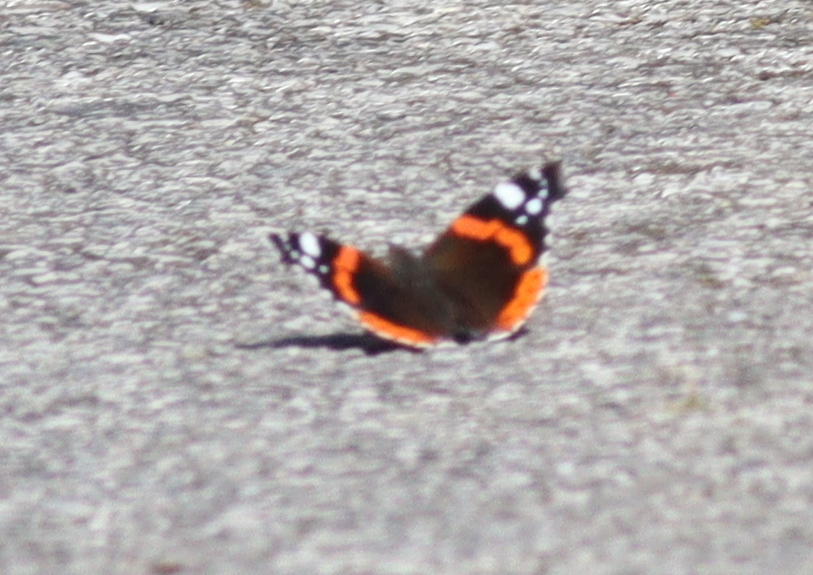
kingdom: Animalia
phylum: Arthropoda
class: Insecta
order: Lepidoptera
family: Nymphalidae
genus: Vanessa
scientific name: Vanessa atalanta
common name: Red admiral
